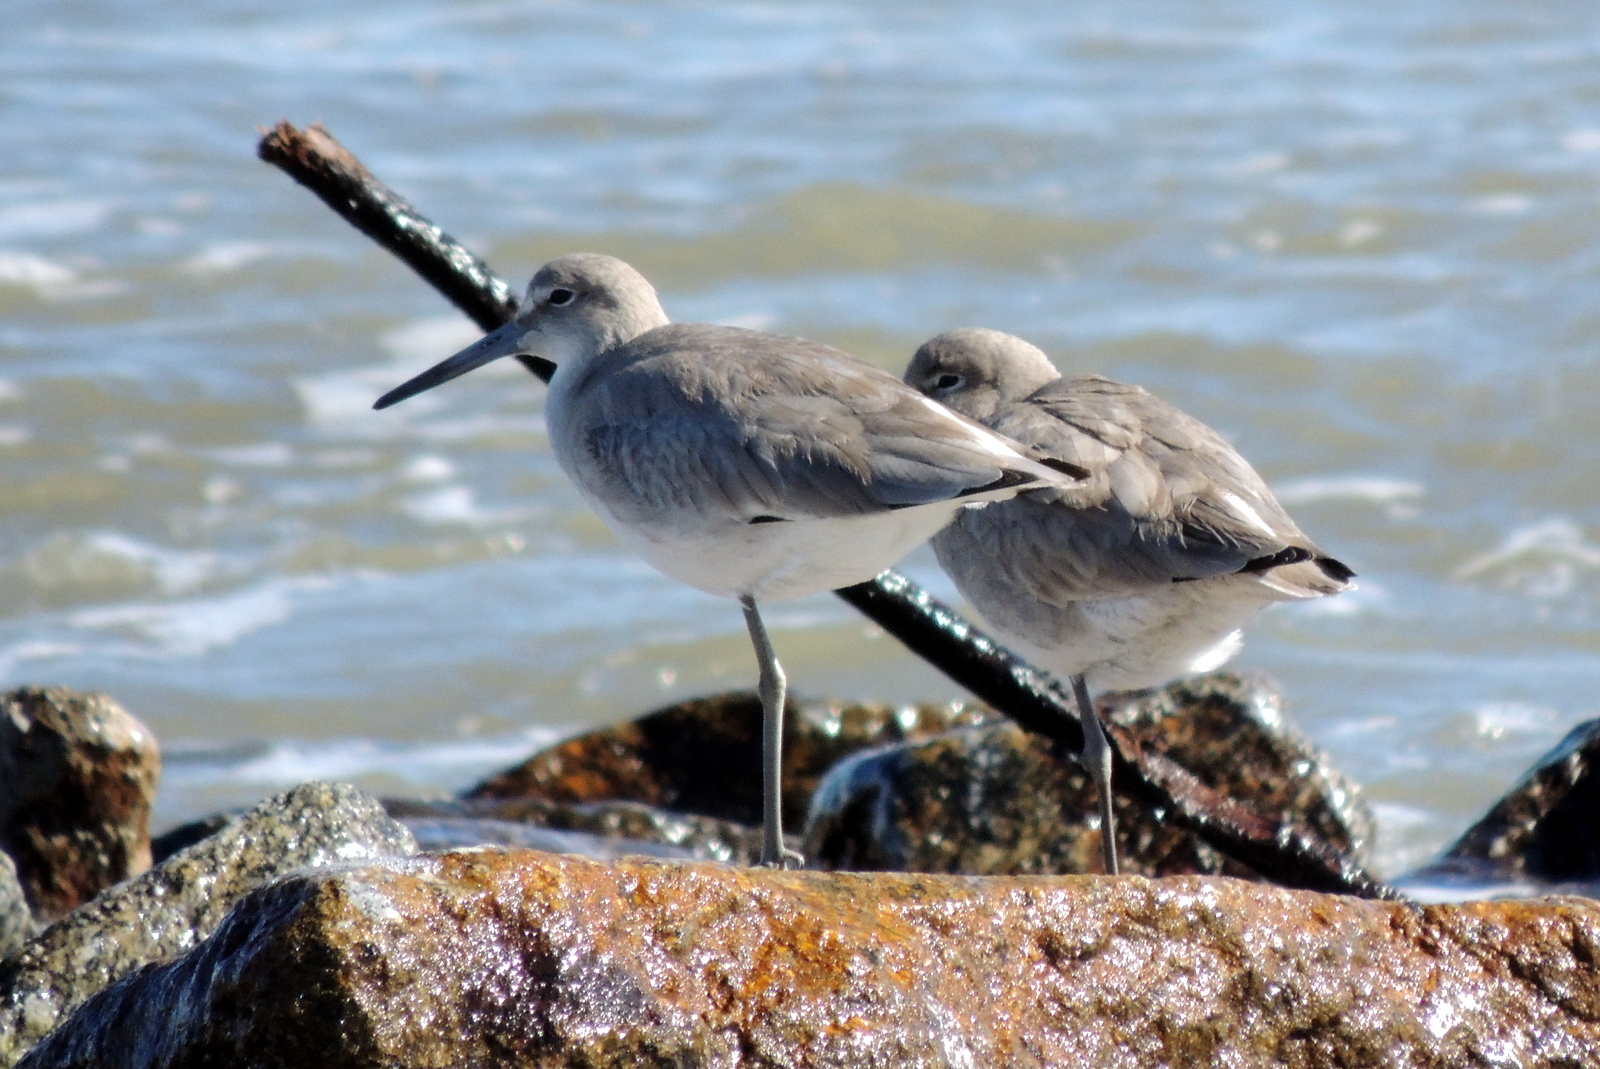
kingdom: Animalia
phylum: Chordata
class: Aves
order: Charadriiformes
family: Scolopacidae
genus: Tringa
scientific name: Tringa semipalmata
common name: Willet
